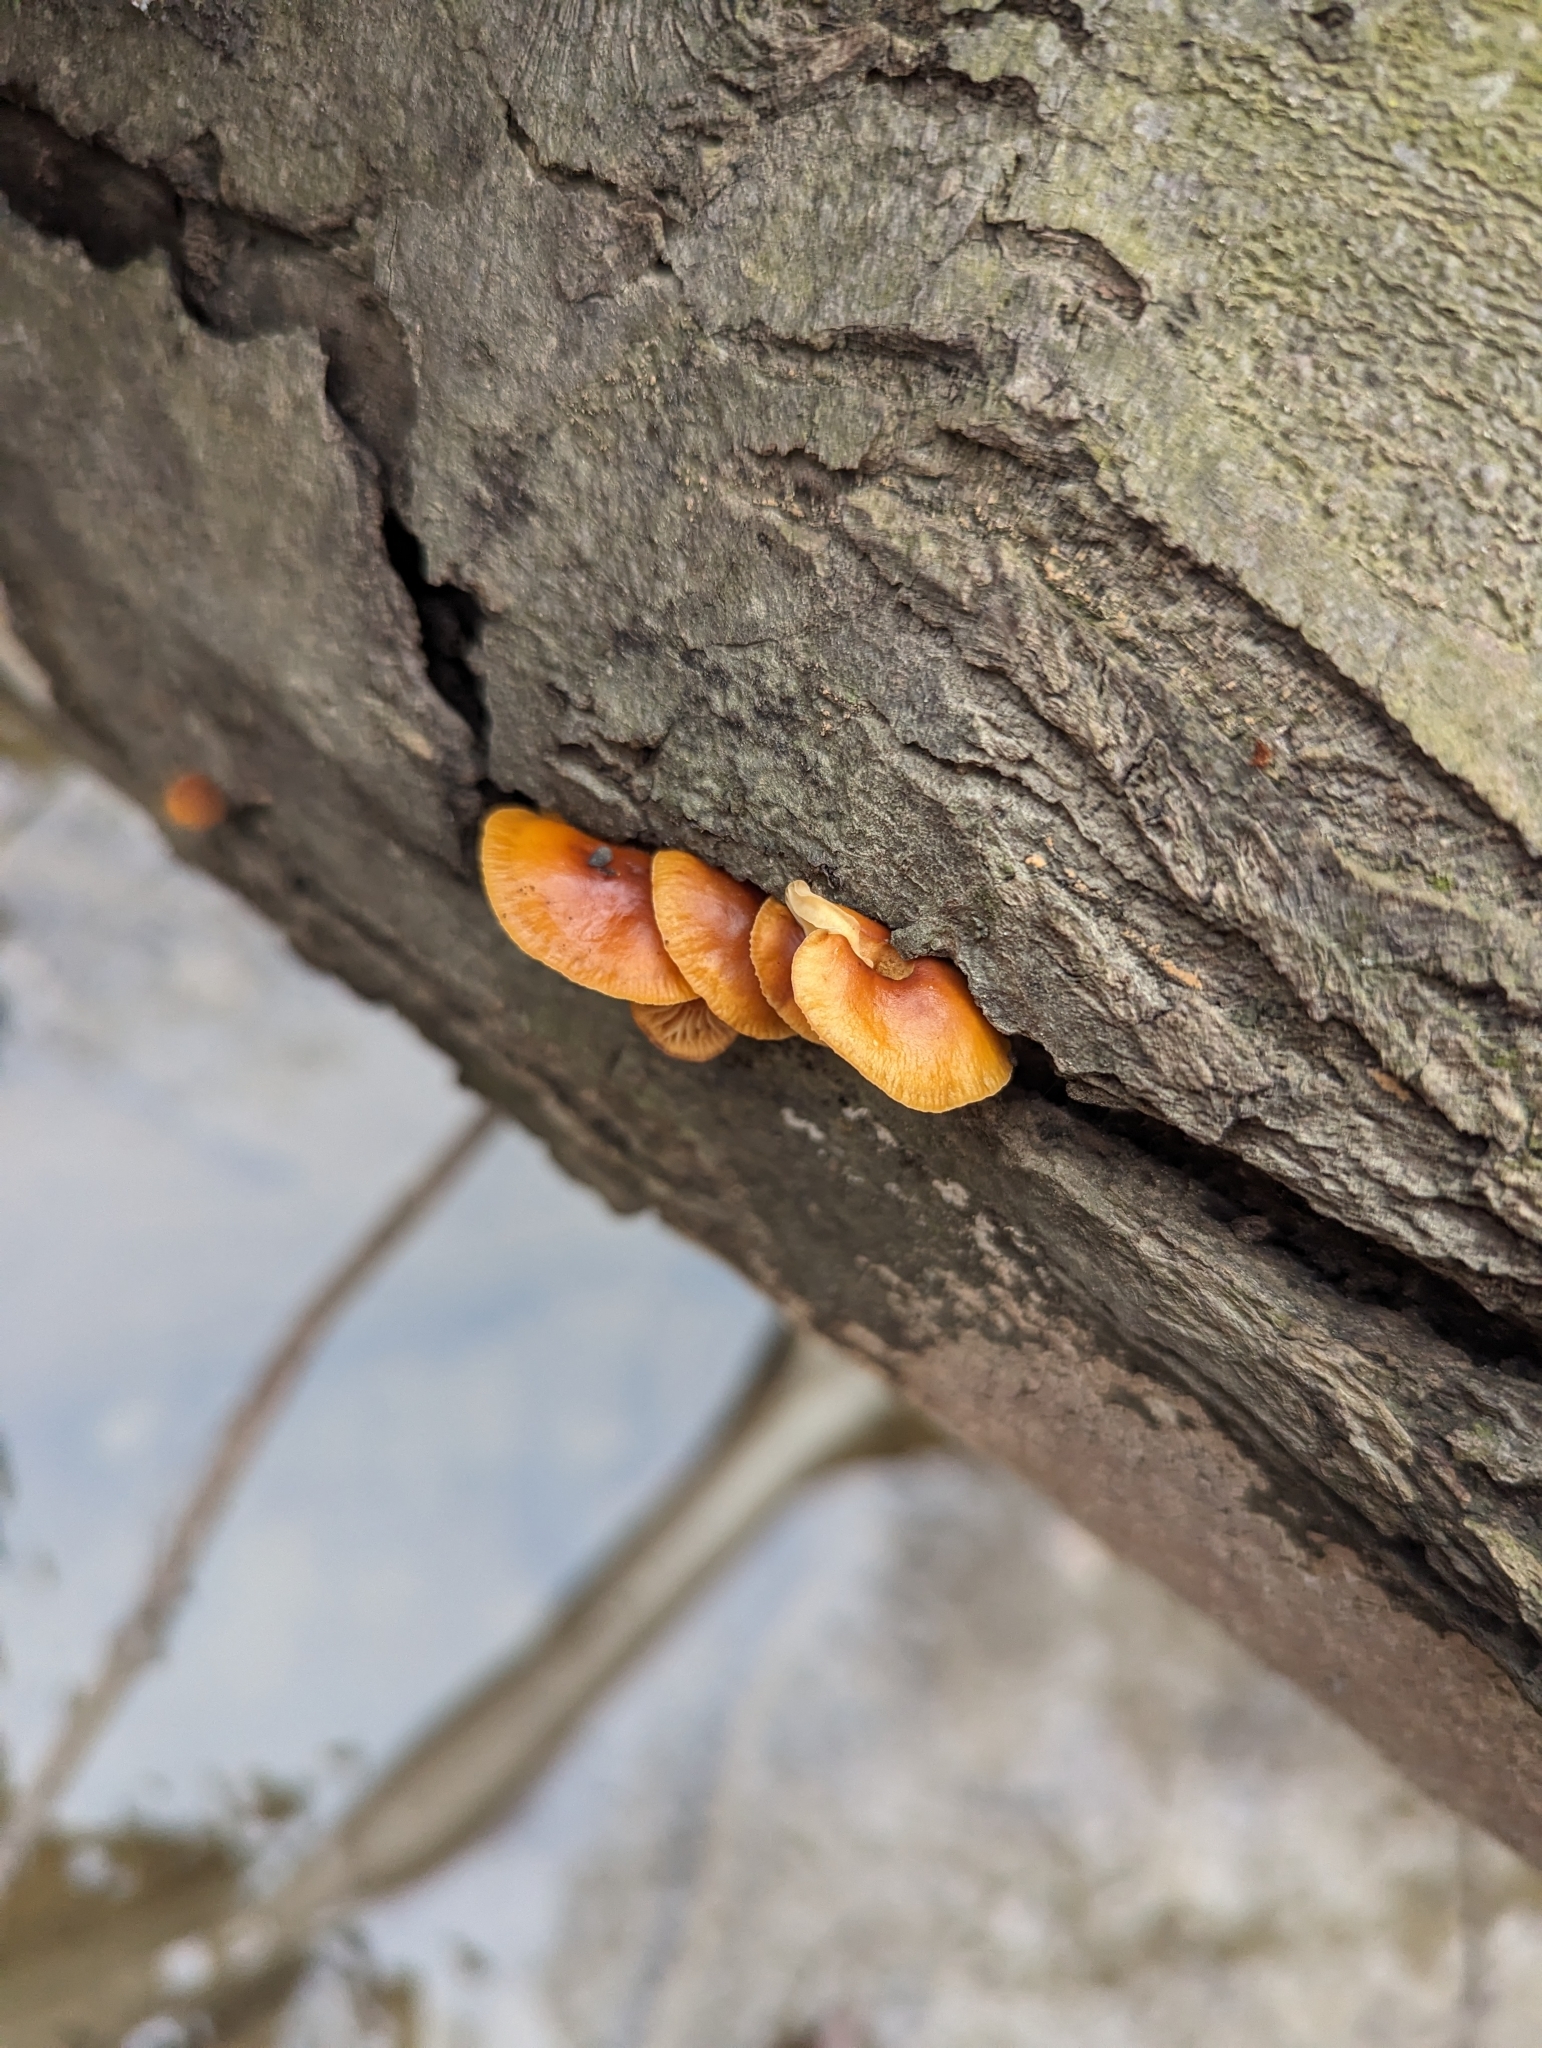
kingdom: Fungi
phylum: Basidiomycota
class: Agaricomycetes
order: Agaricales
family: Physalacriaceae
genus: Flammulina
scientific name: Flammulina velutipes
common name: Velvet shank
